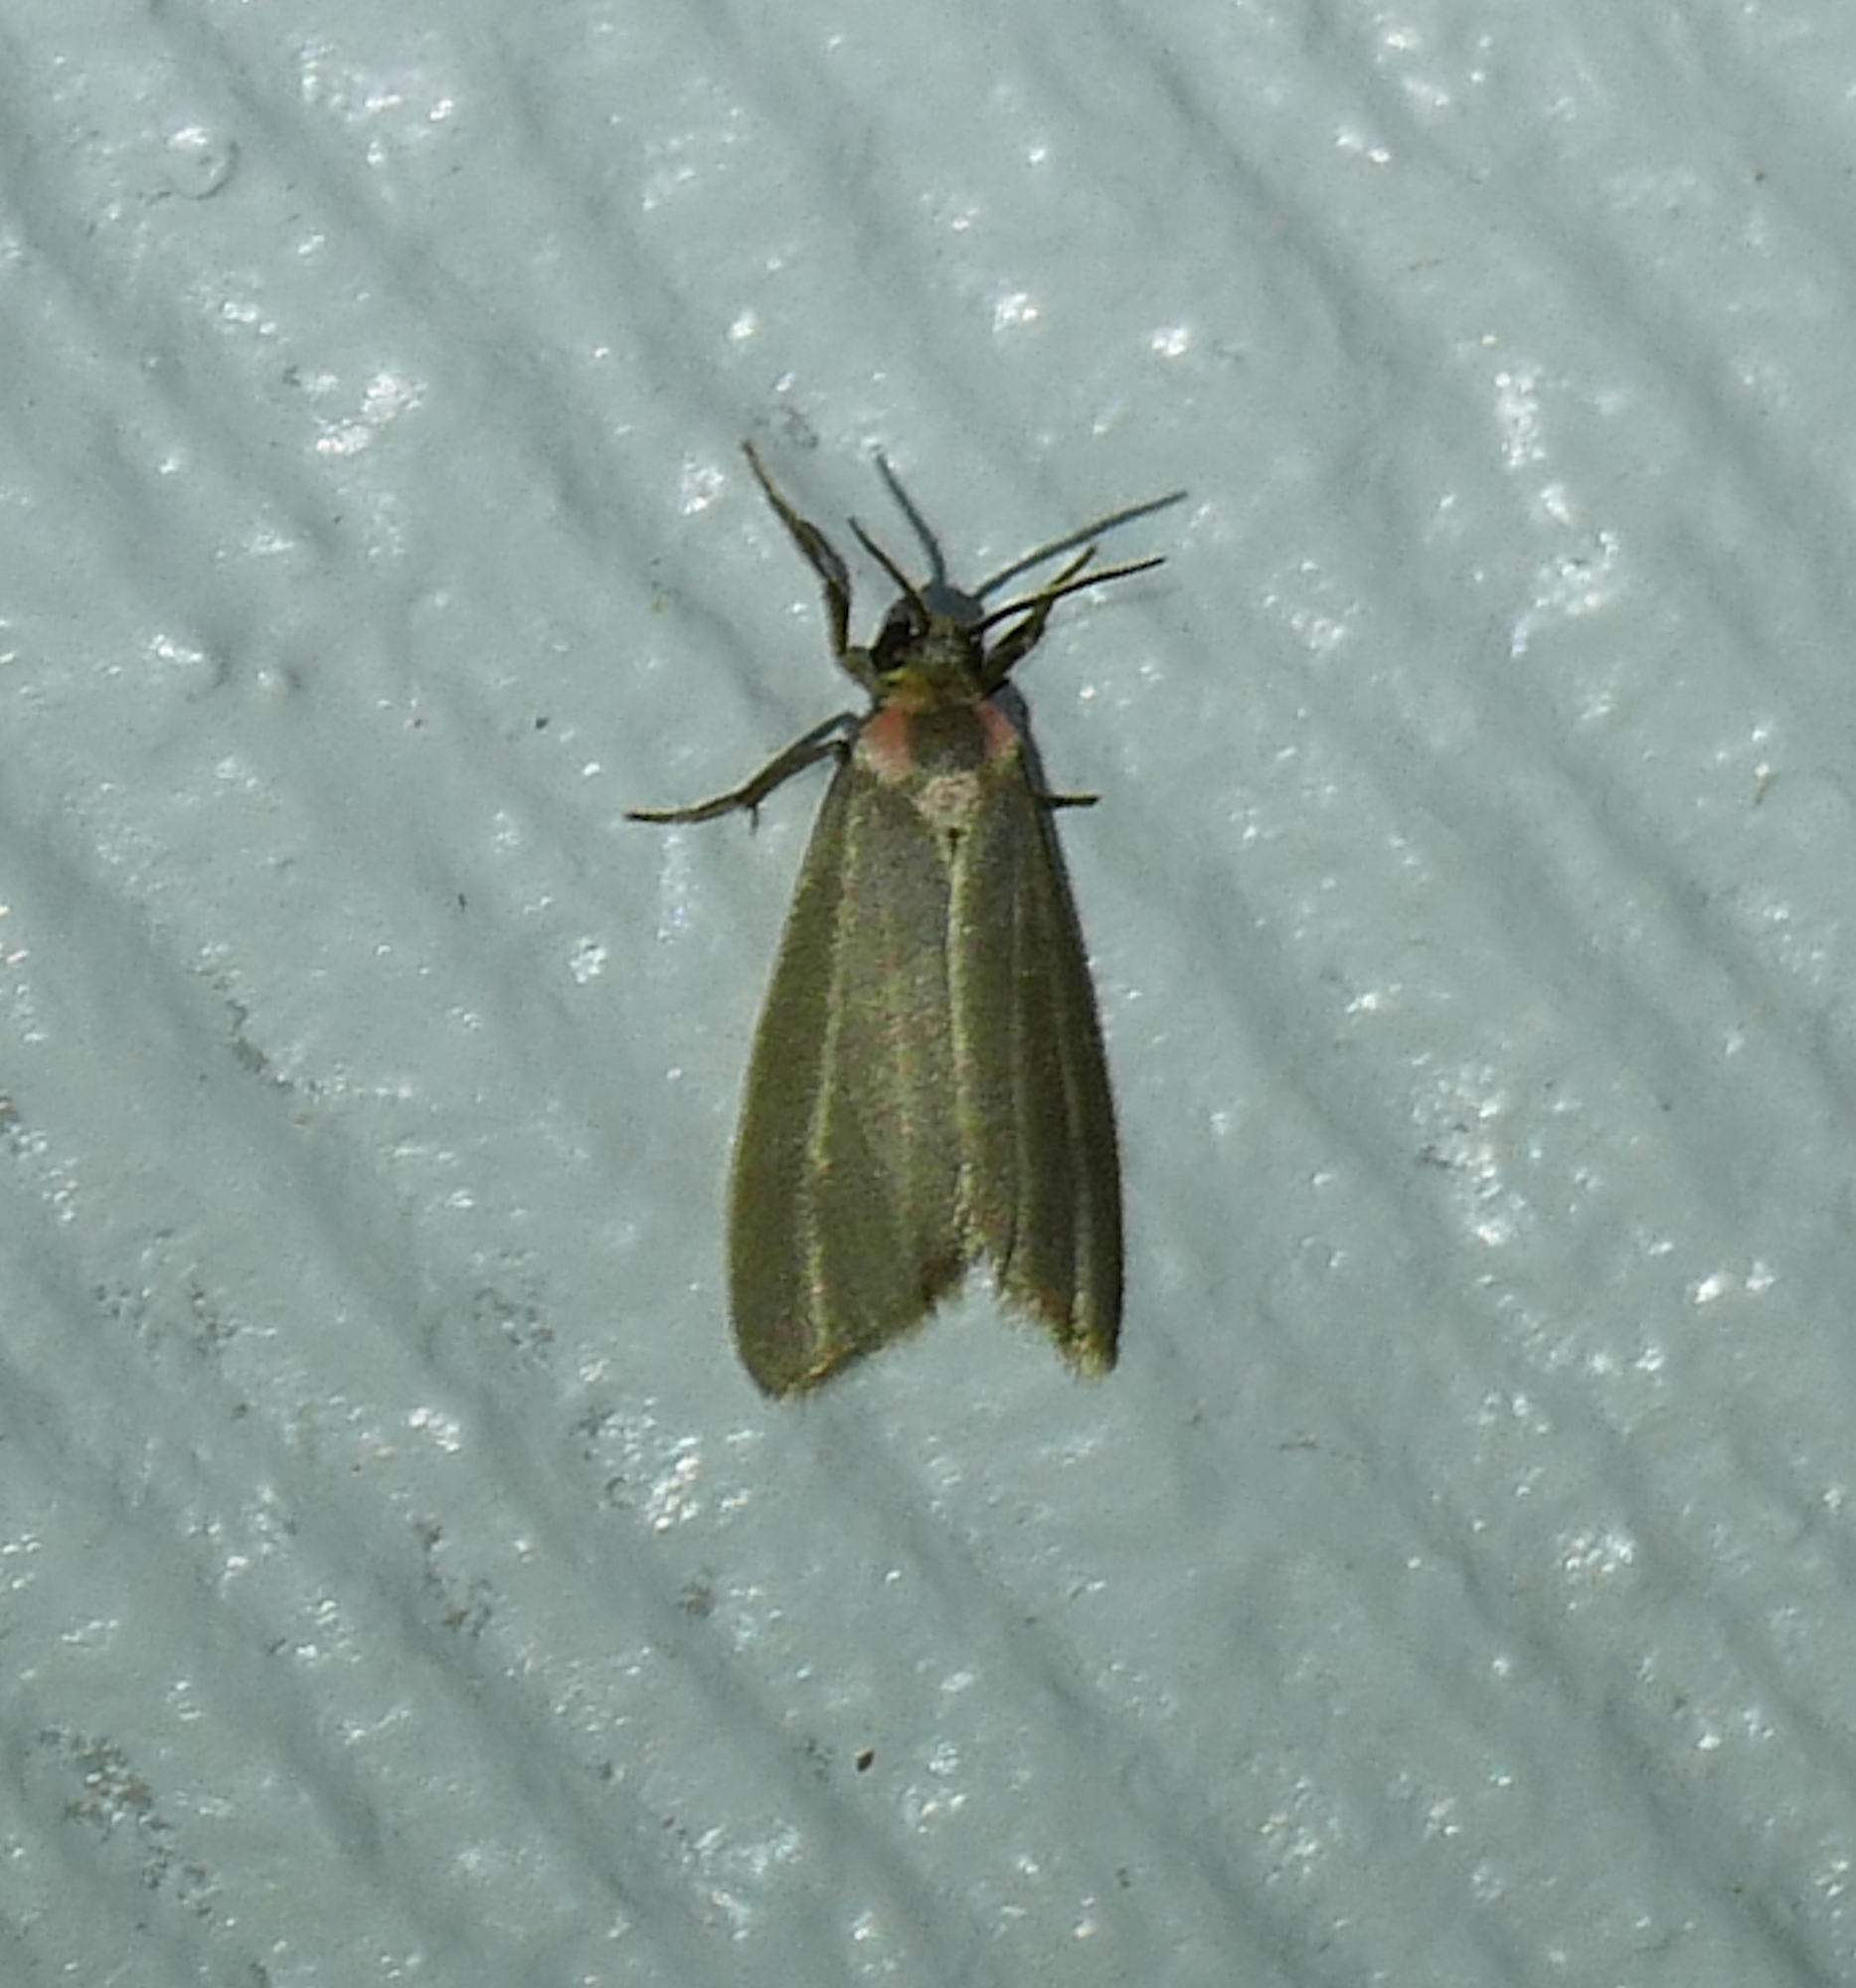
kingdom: Animalia
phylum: Arthropoda
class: Insecta
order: Lepidoptera
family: Erebidae
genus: Haematomis
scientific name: Haematomis uniformis
